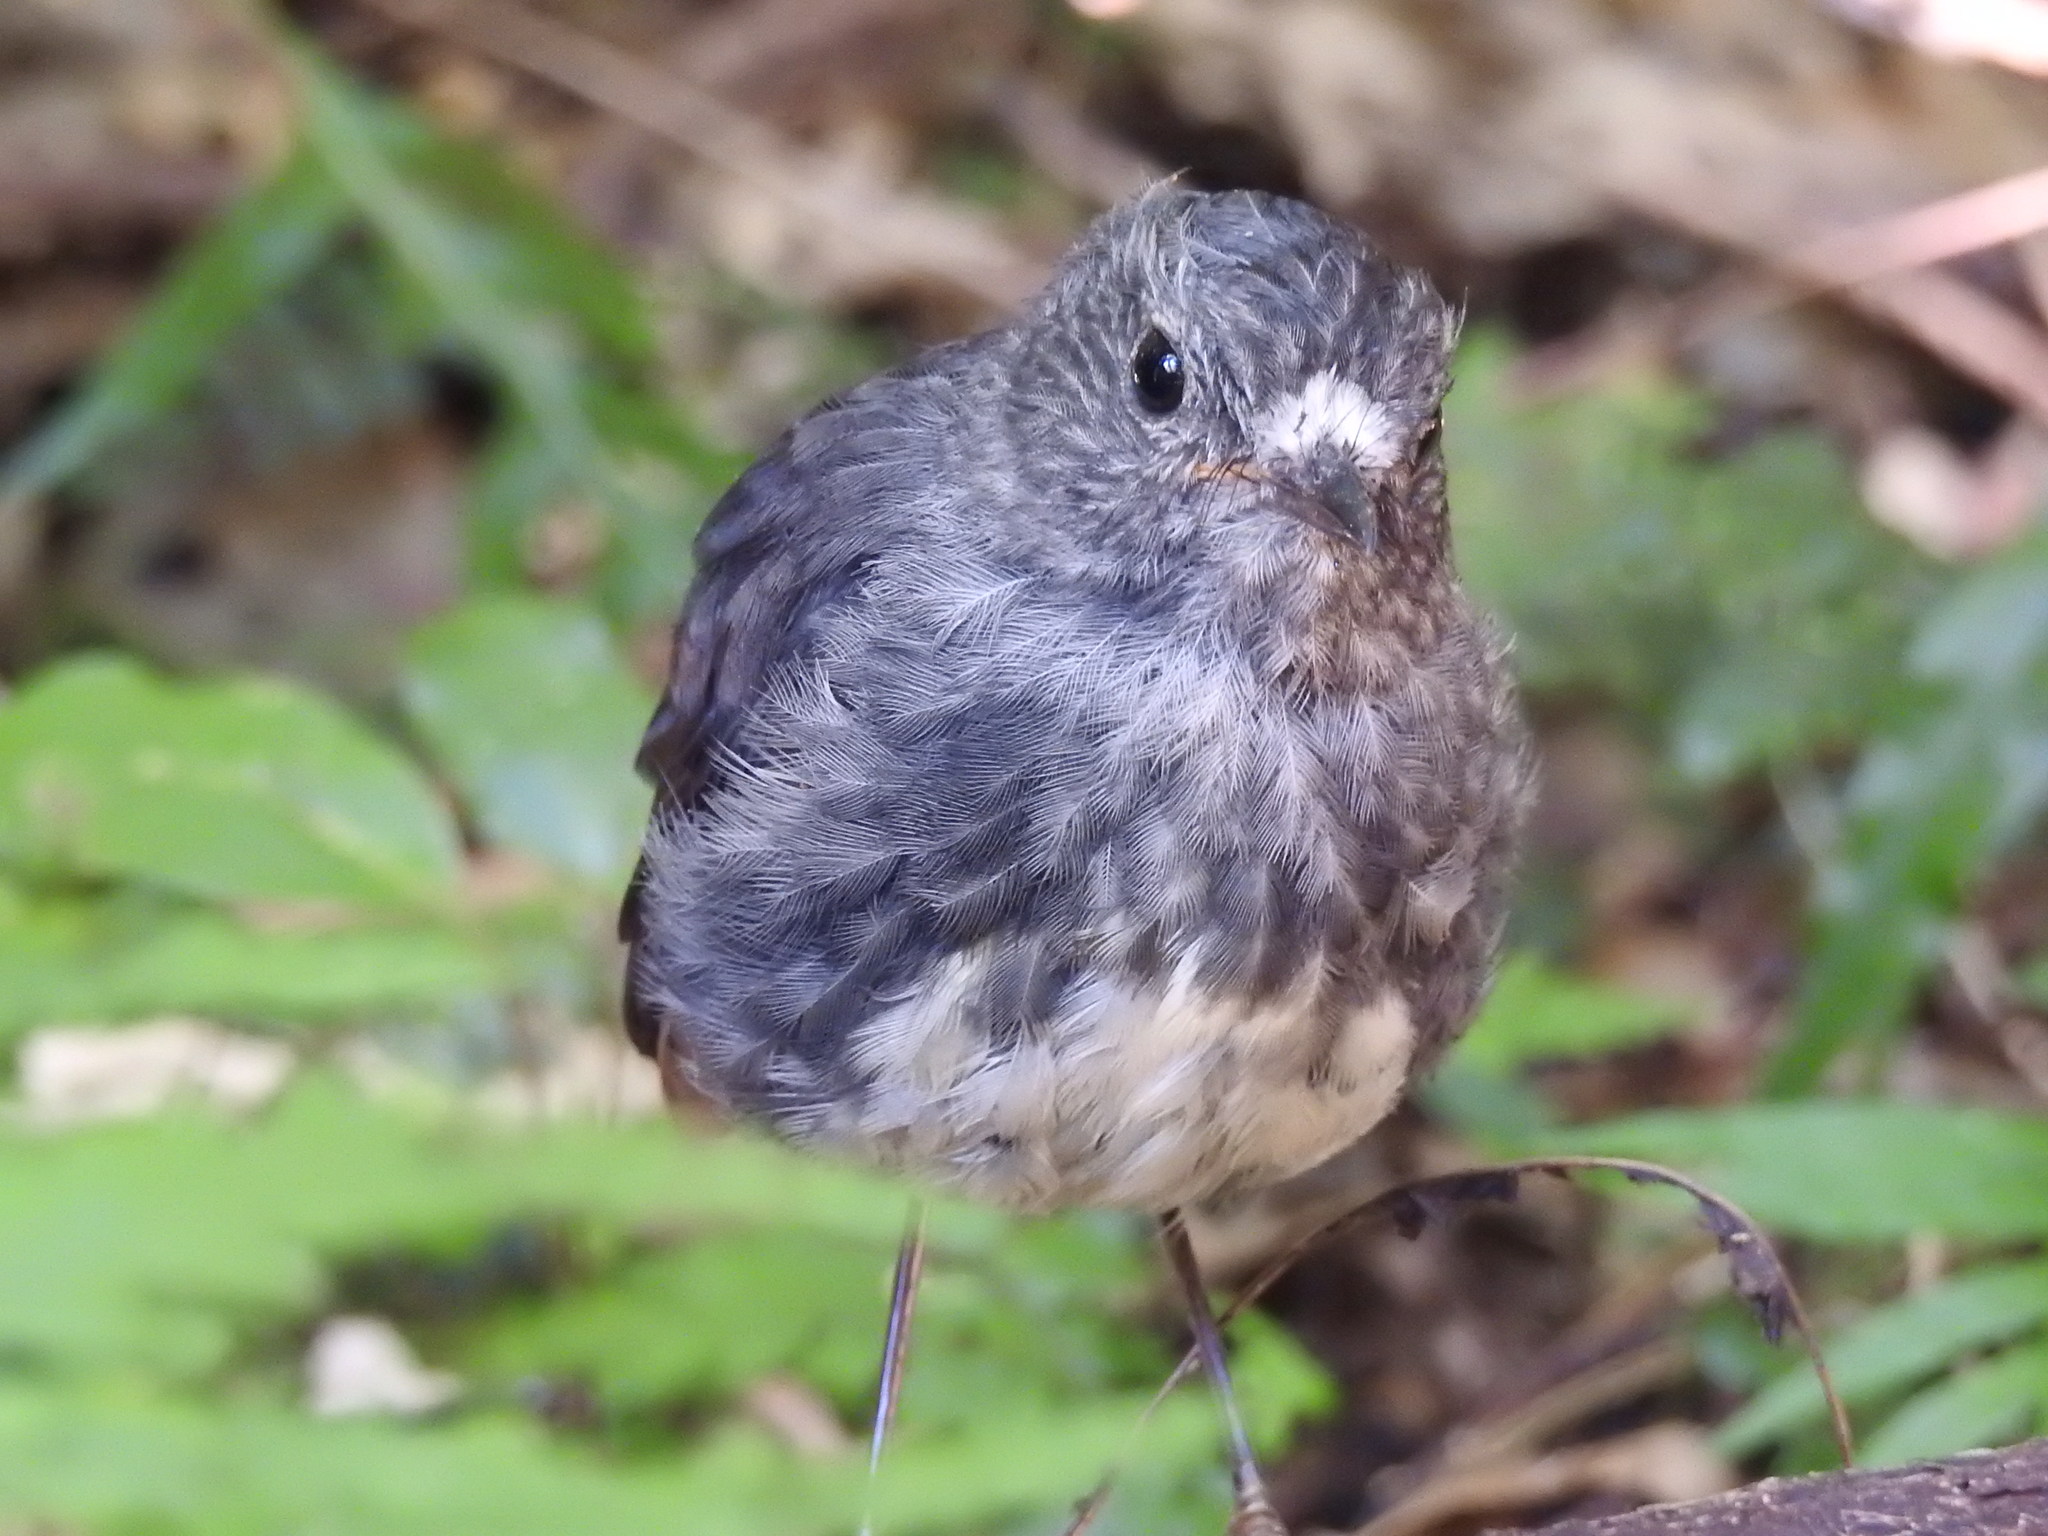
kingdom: Animalia
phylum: Chordata
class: Aves
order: Passeriformes
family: Petroicidae
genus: Petroica
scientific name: Petroica australis
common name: New zealand robin
